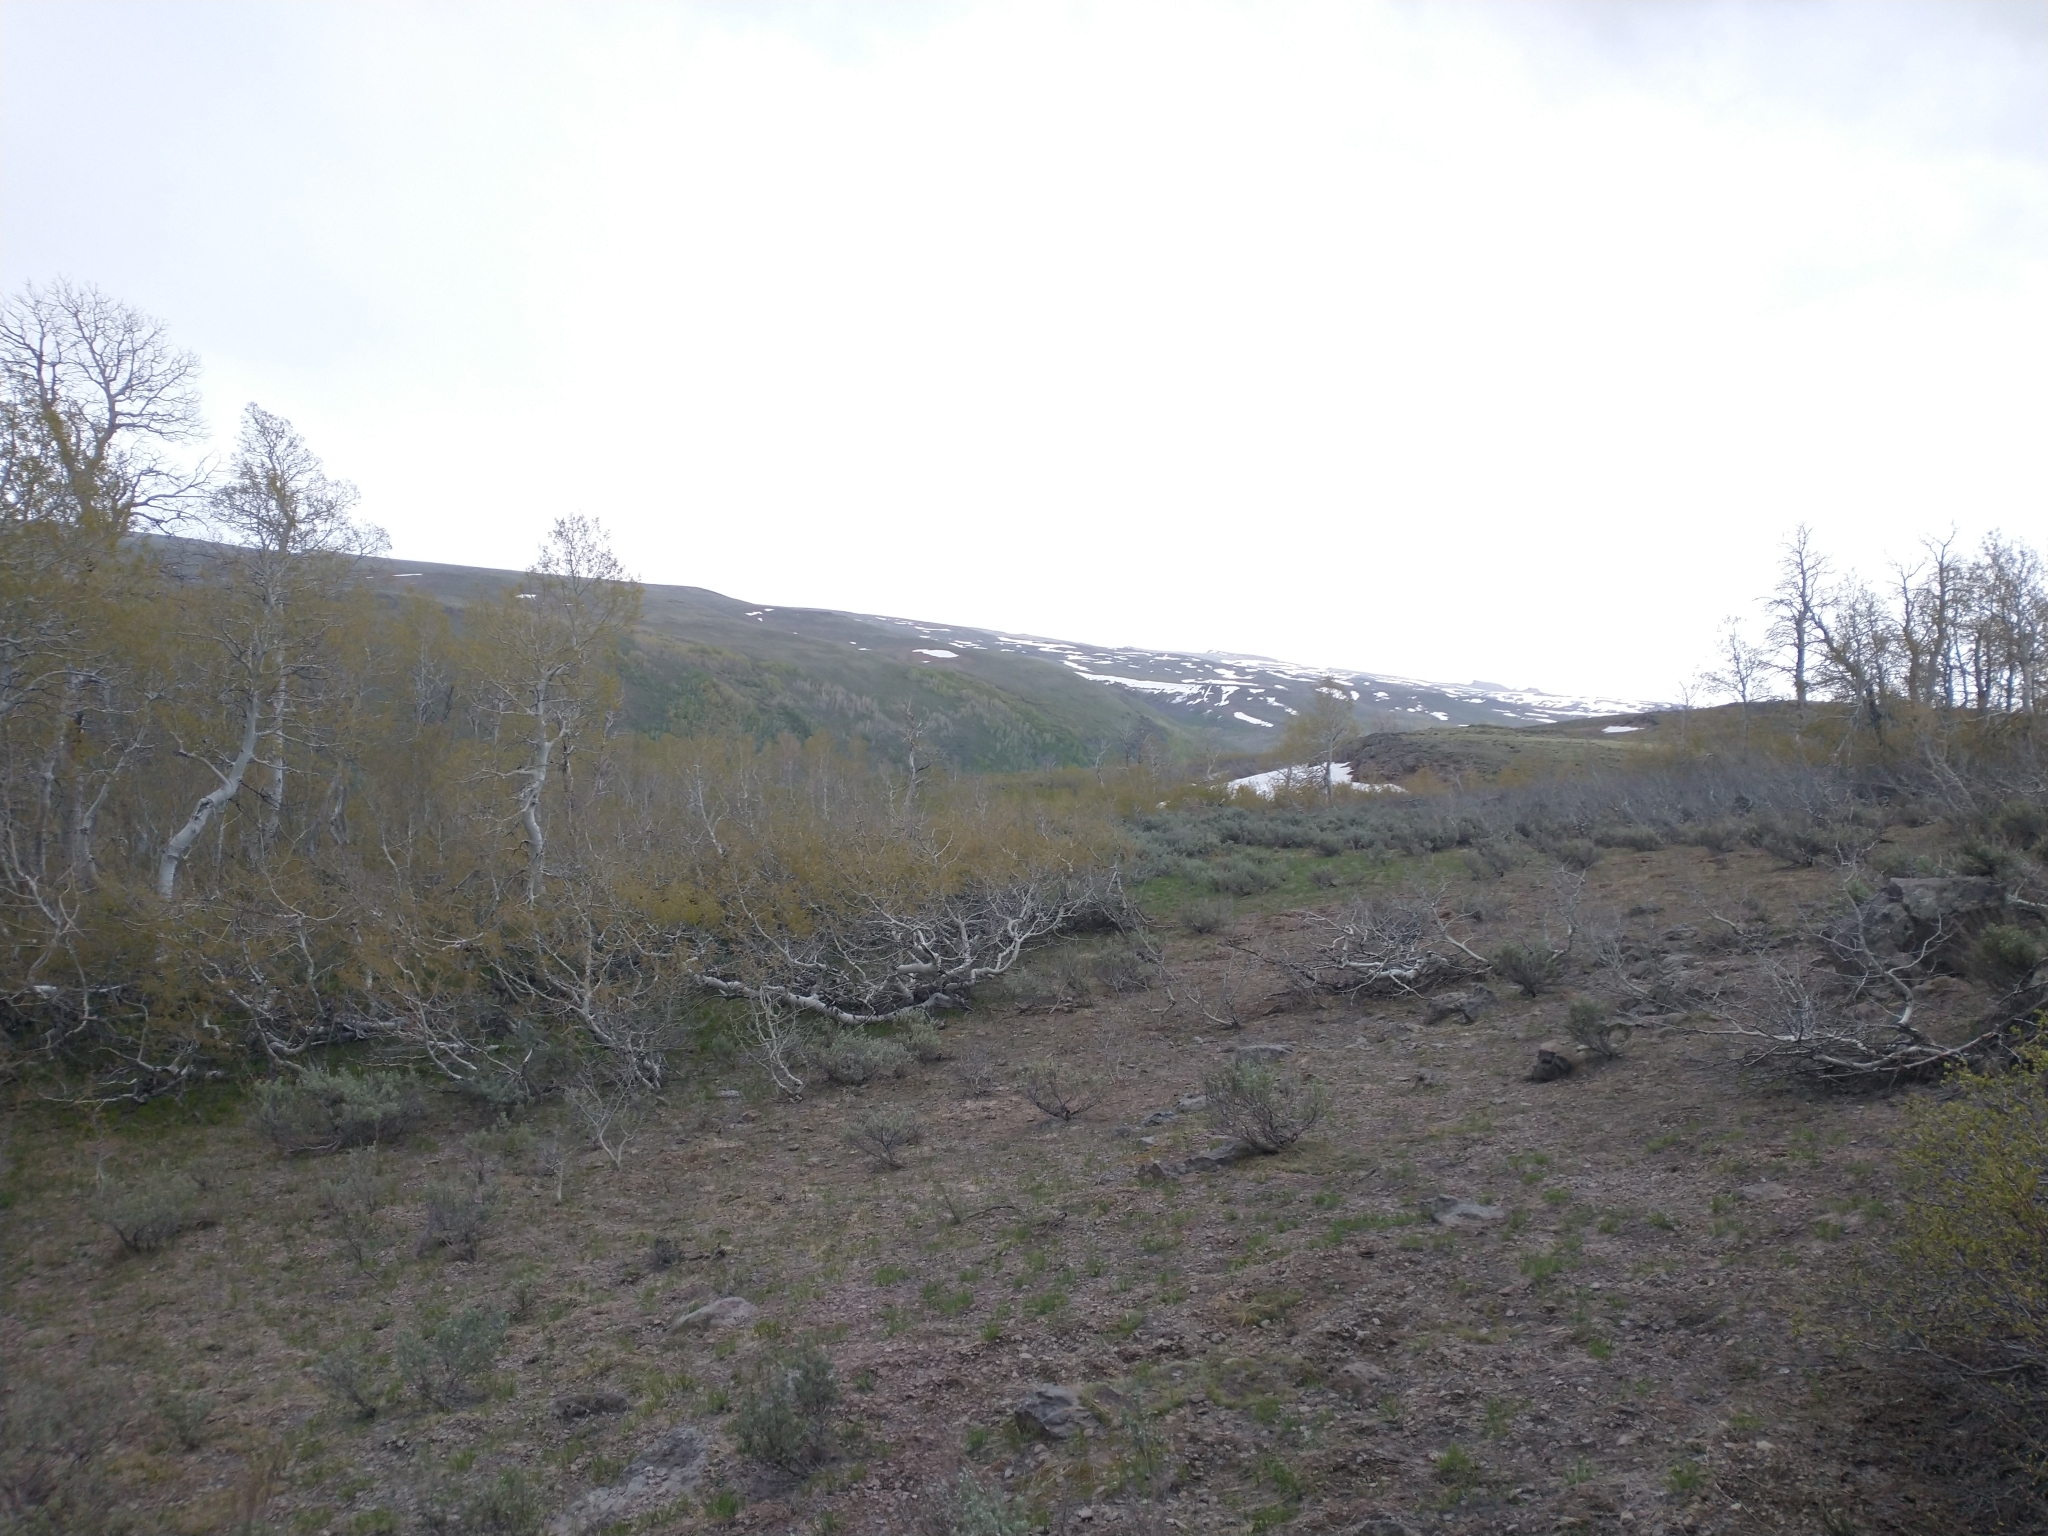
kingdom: Plantae
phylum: Tracheophyta
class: Magnoliopsida
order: Malpighiales
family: Salicaceae
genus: Populus
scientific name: Populus tremuloides
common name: Quaking aspen
